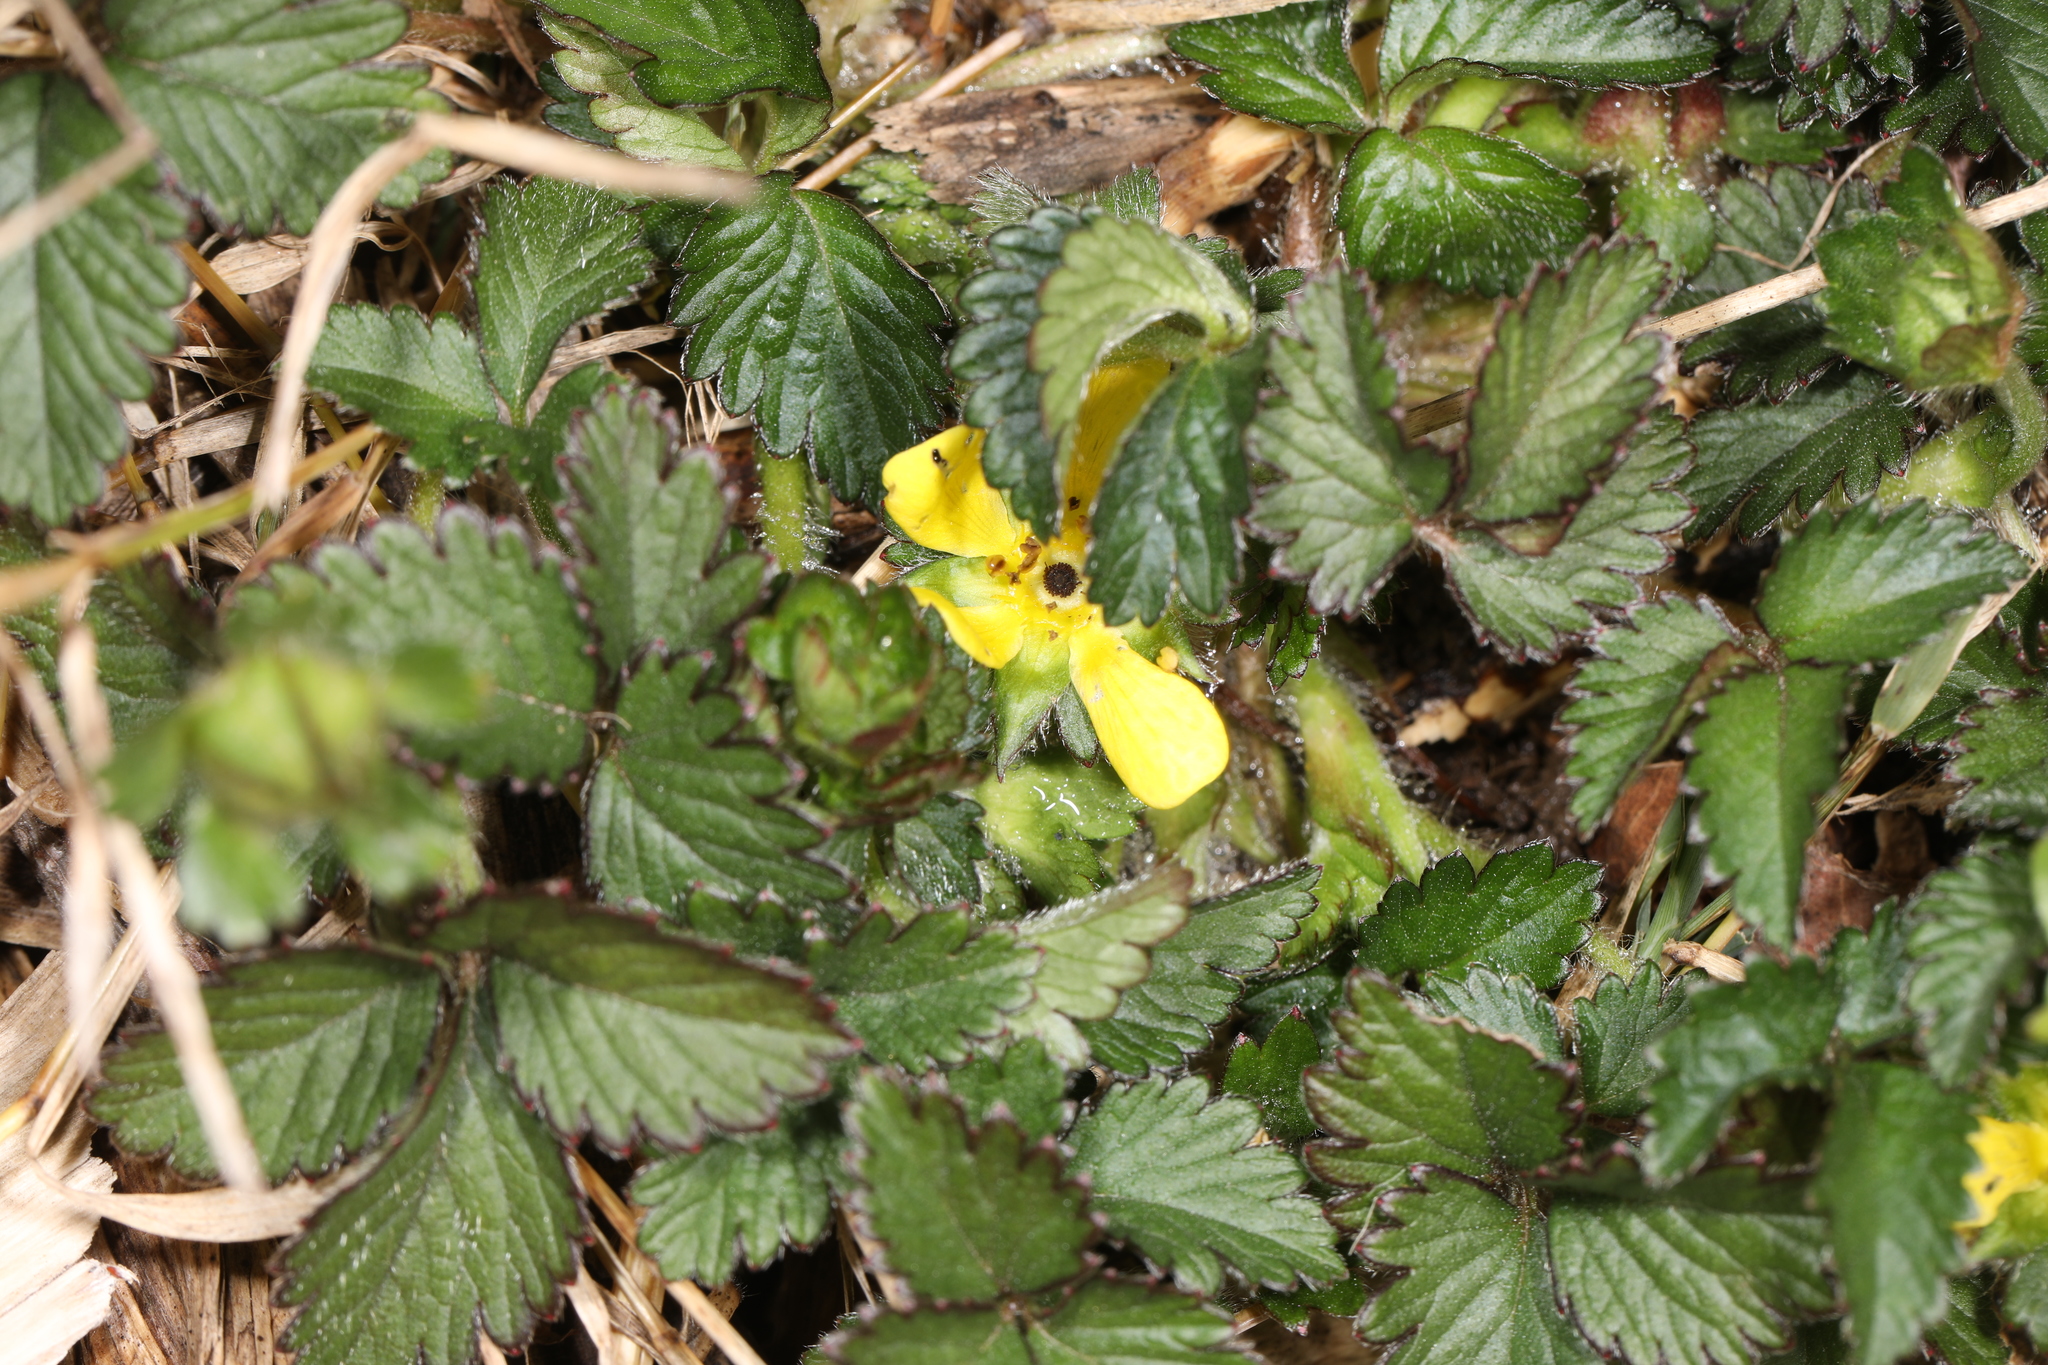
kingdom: Plantae
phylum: Tracheophyta
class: Magnoliopsida
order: Rosales
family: Rosaceae
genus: Potentilla
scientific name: Potentilla indica
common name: Yellow-flowered strawberry
